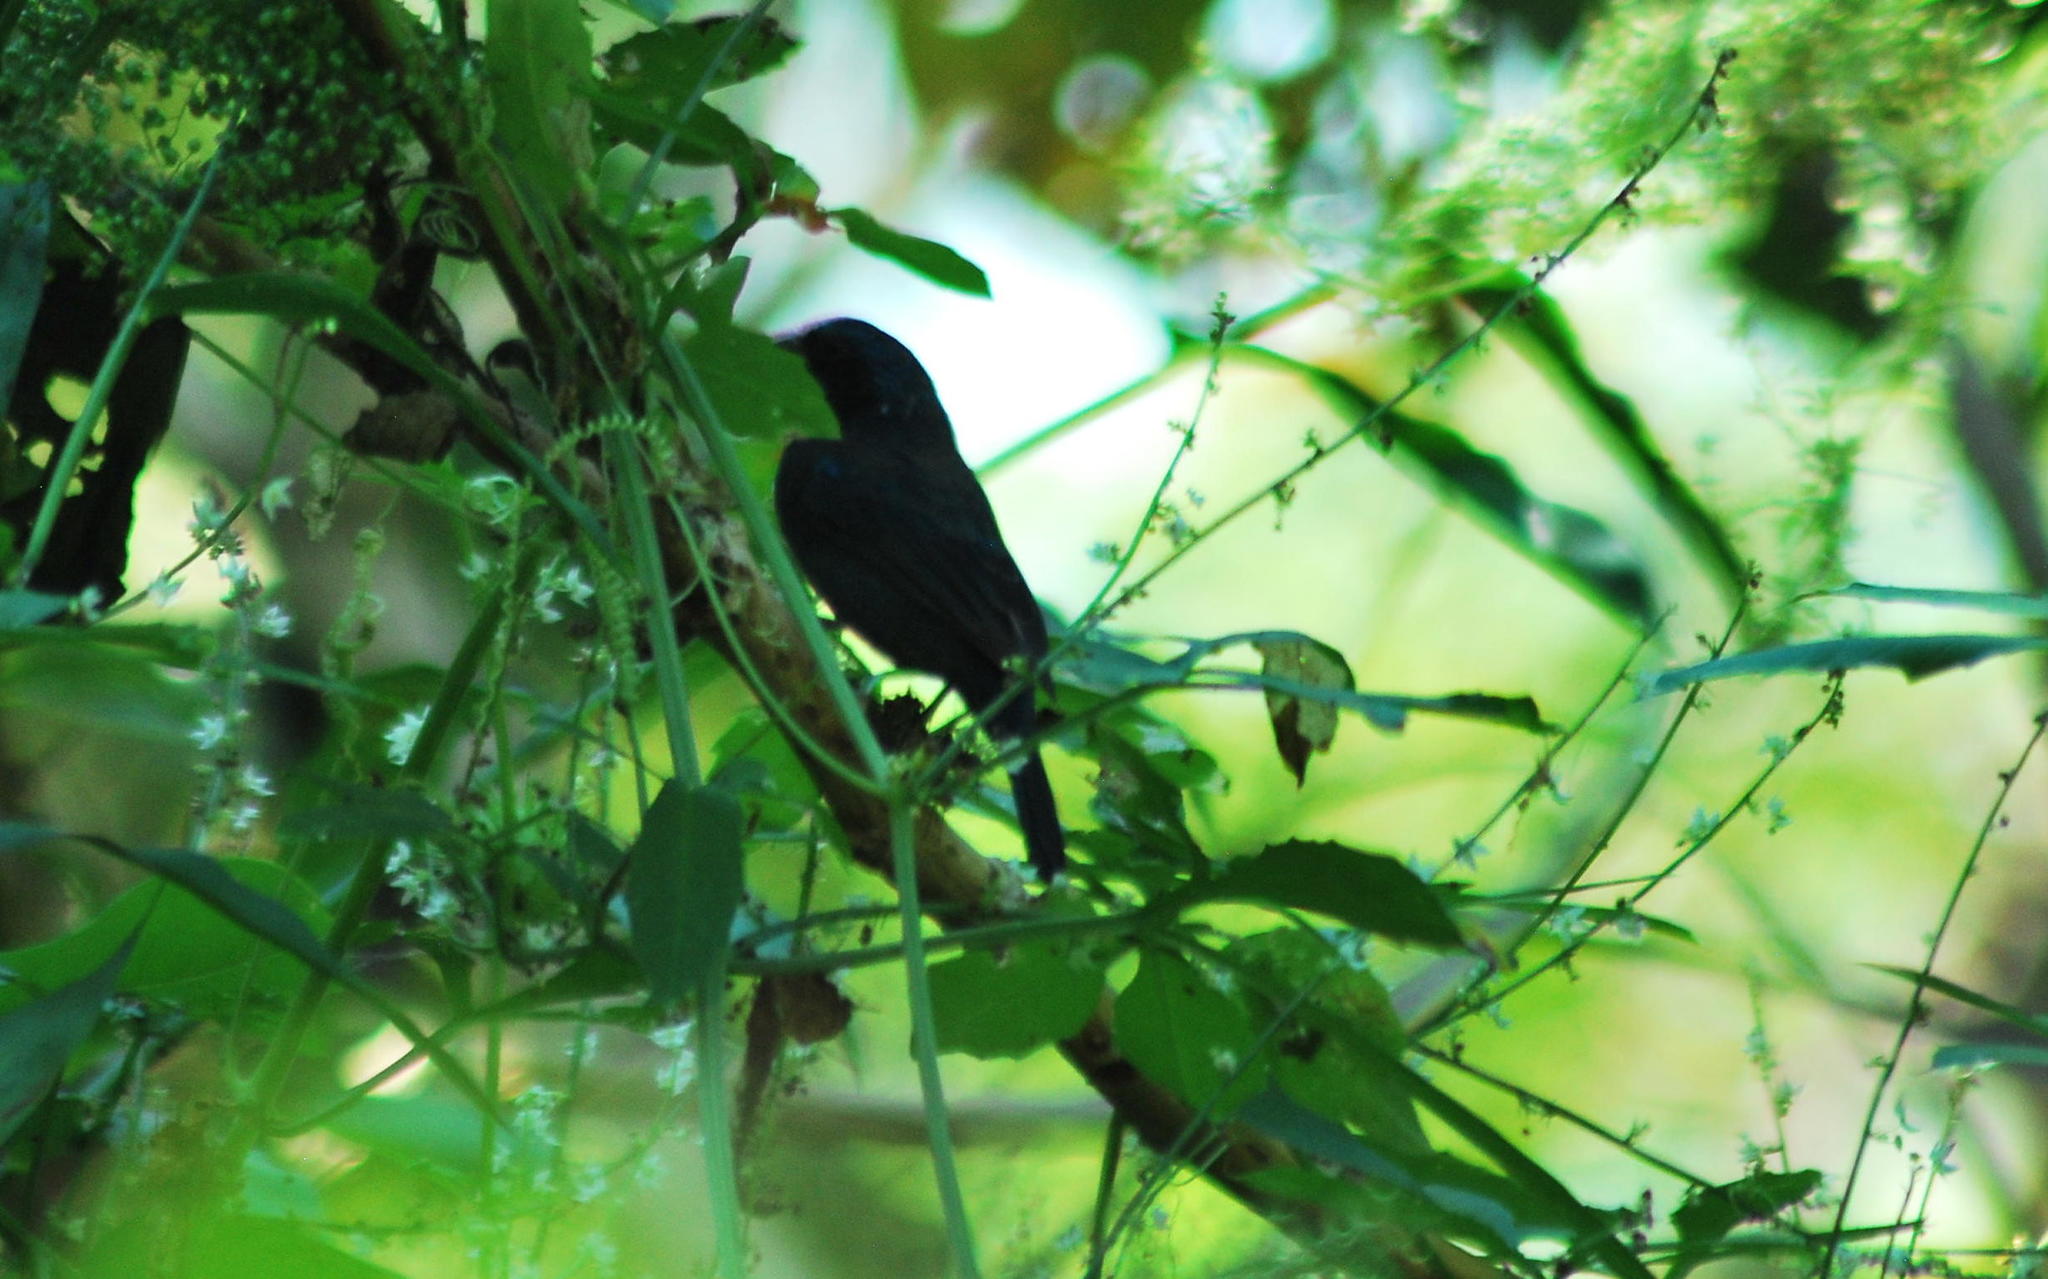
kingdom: Animalia
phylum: Chordata
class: Aves
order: Passeriformes
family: Cardinalidae
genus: Cyanocompsa
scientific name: Cyanocompsa parellina
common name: Blue bunting
